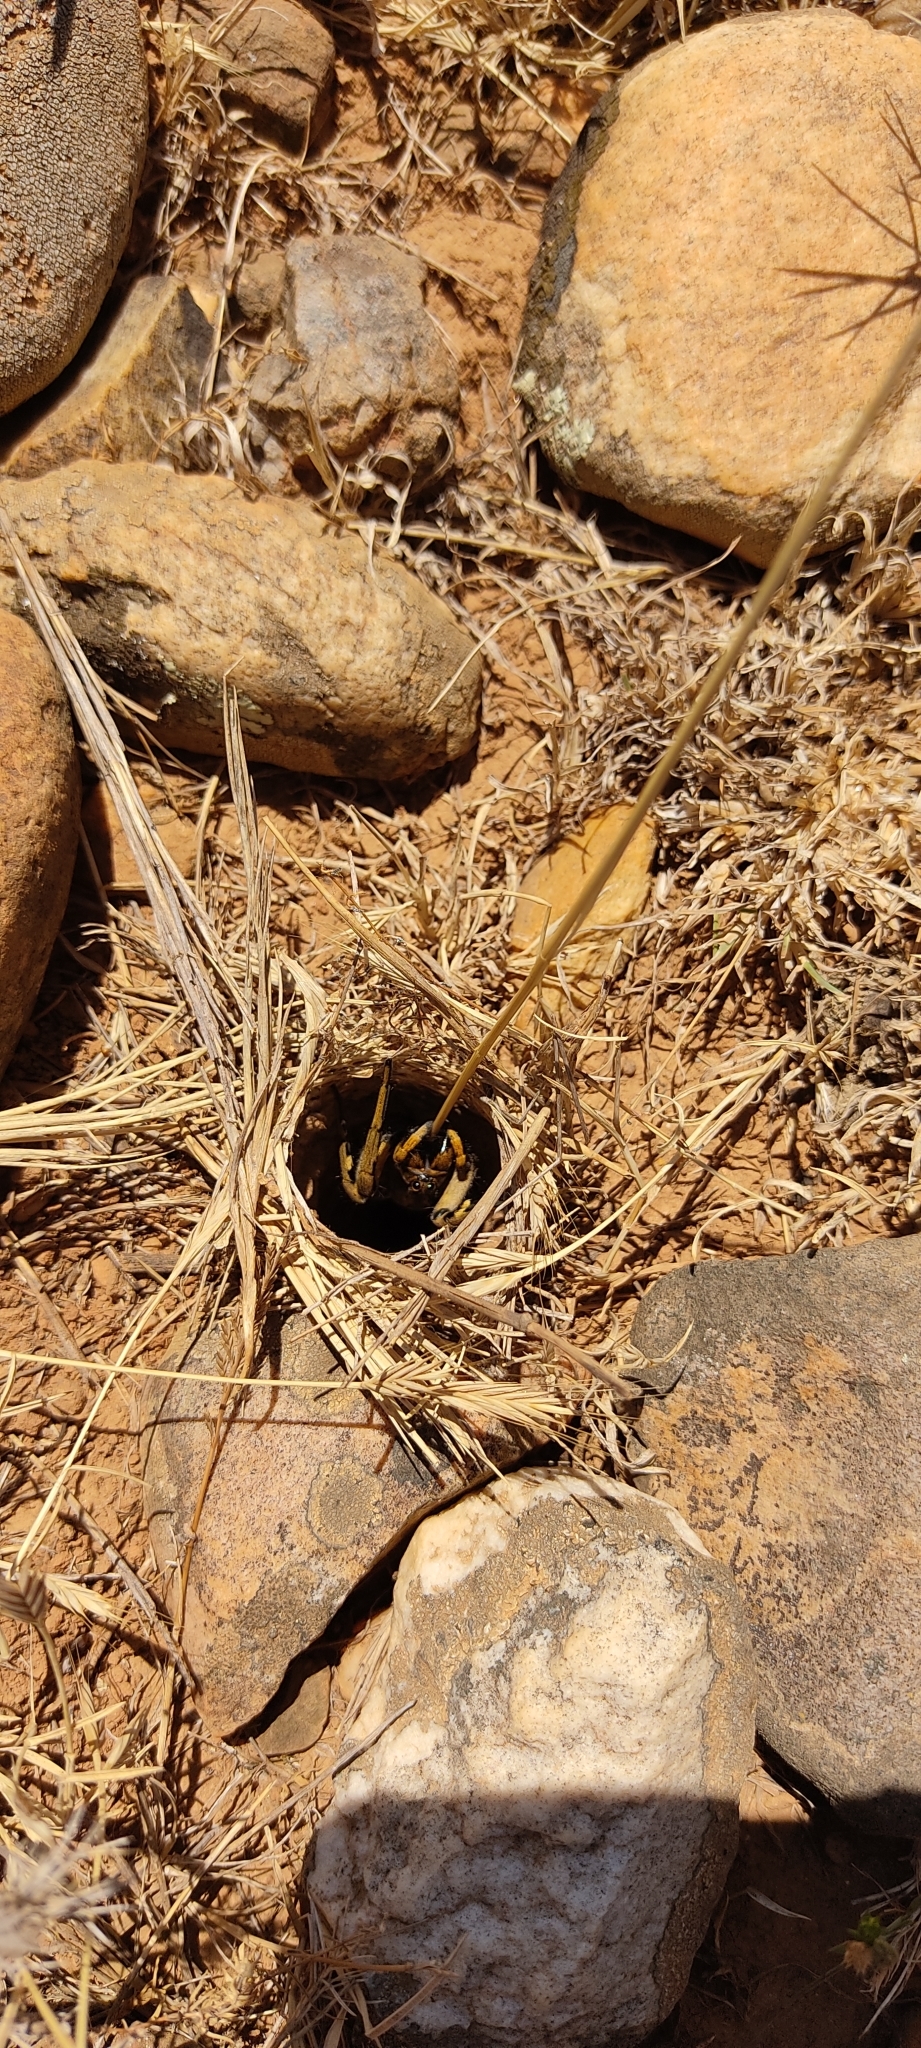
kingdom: Animalia
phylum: Arthropoda
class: Arachnida
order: Araneae
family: Lycosidae
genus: Lycosa
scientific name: Lycosa tarantula
